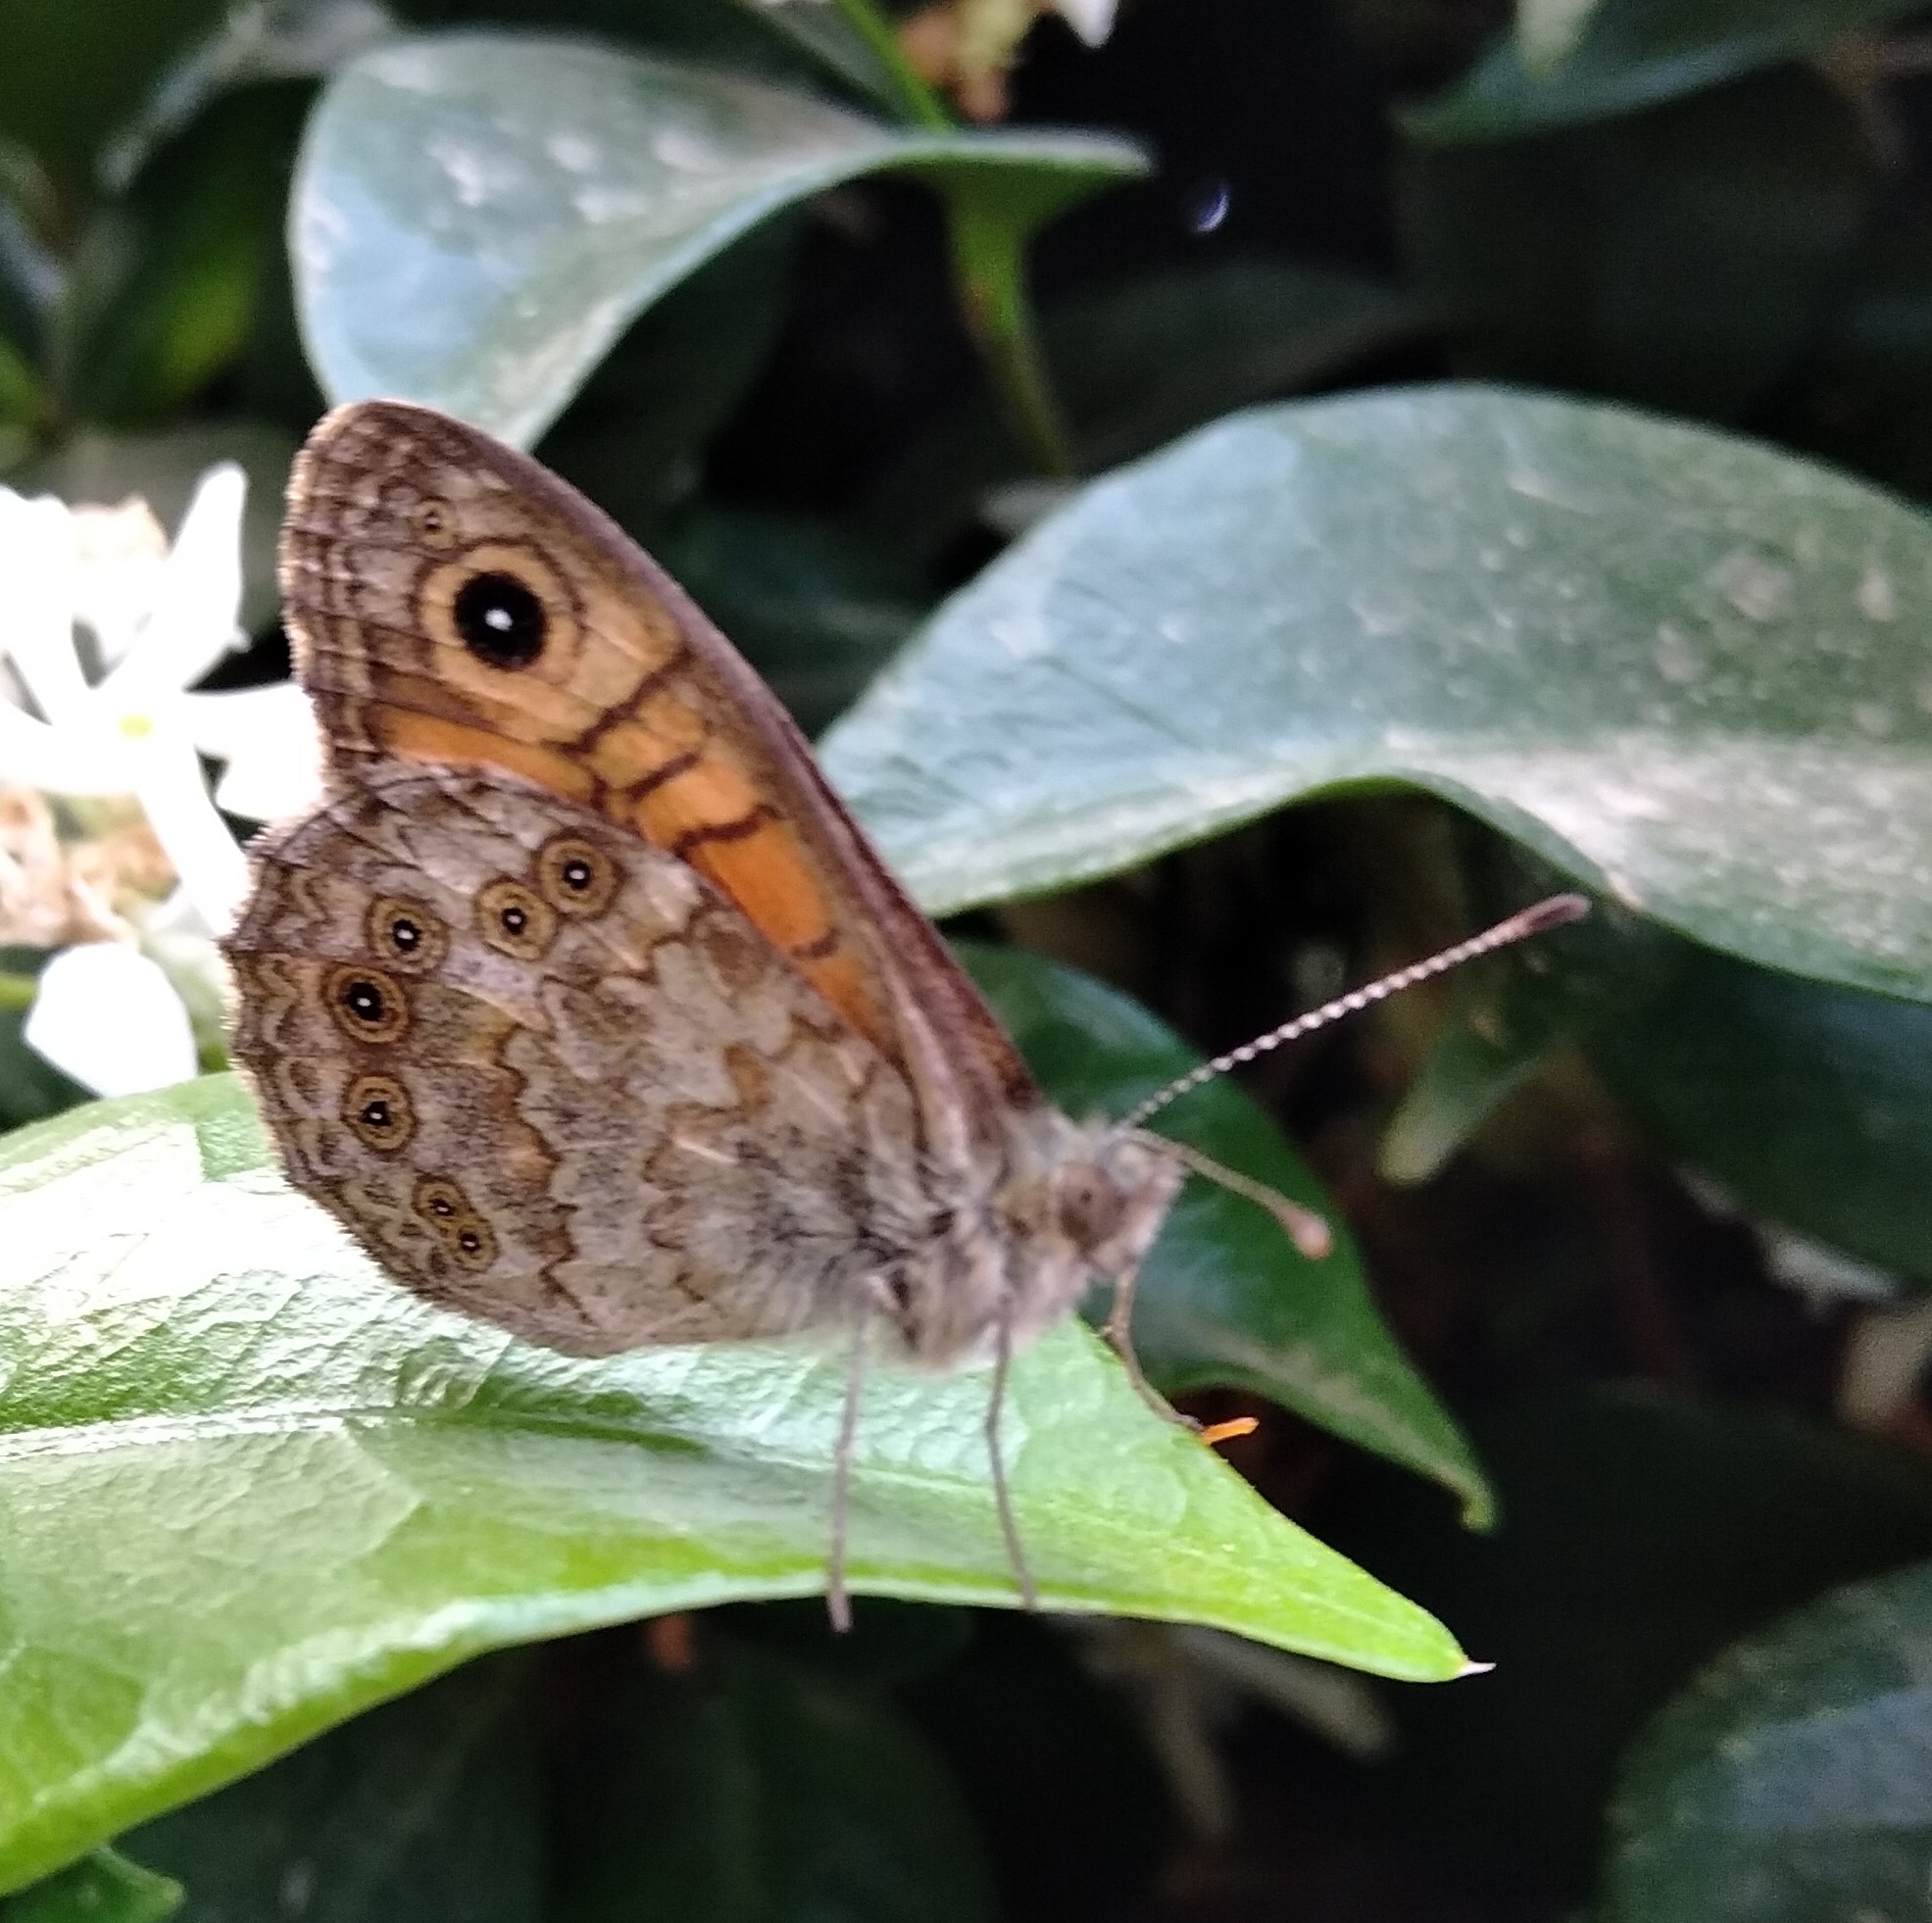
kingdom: Animalia
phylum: Arthropoda
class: Insecta
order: Lepidoptera
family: Nymphalidae
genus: Pararge
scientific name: Pararge Lasiommata megera
